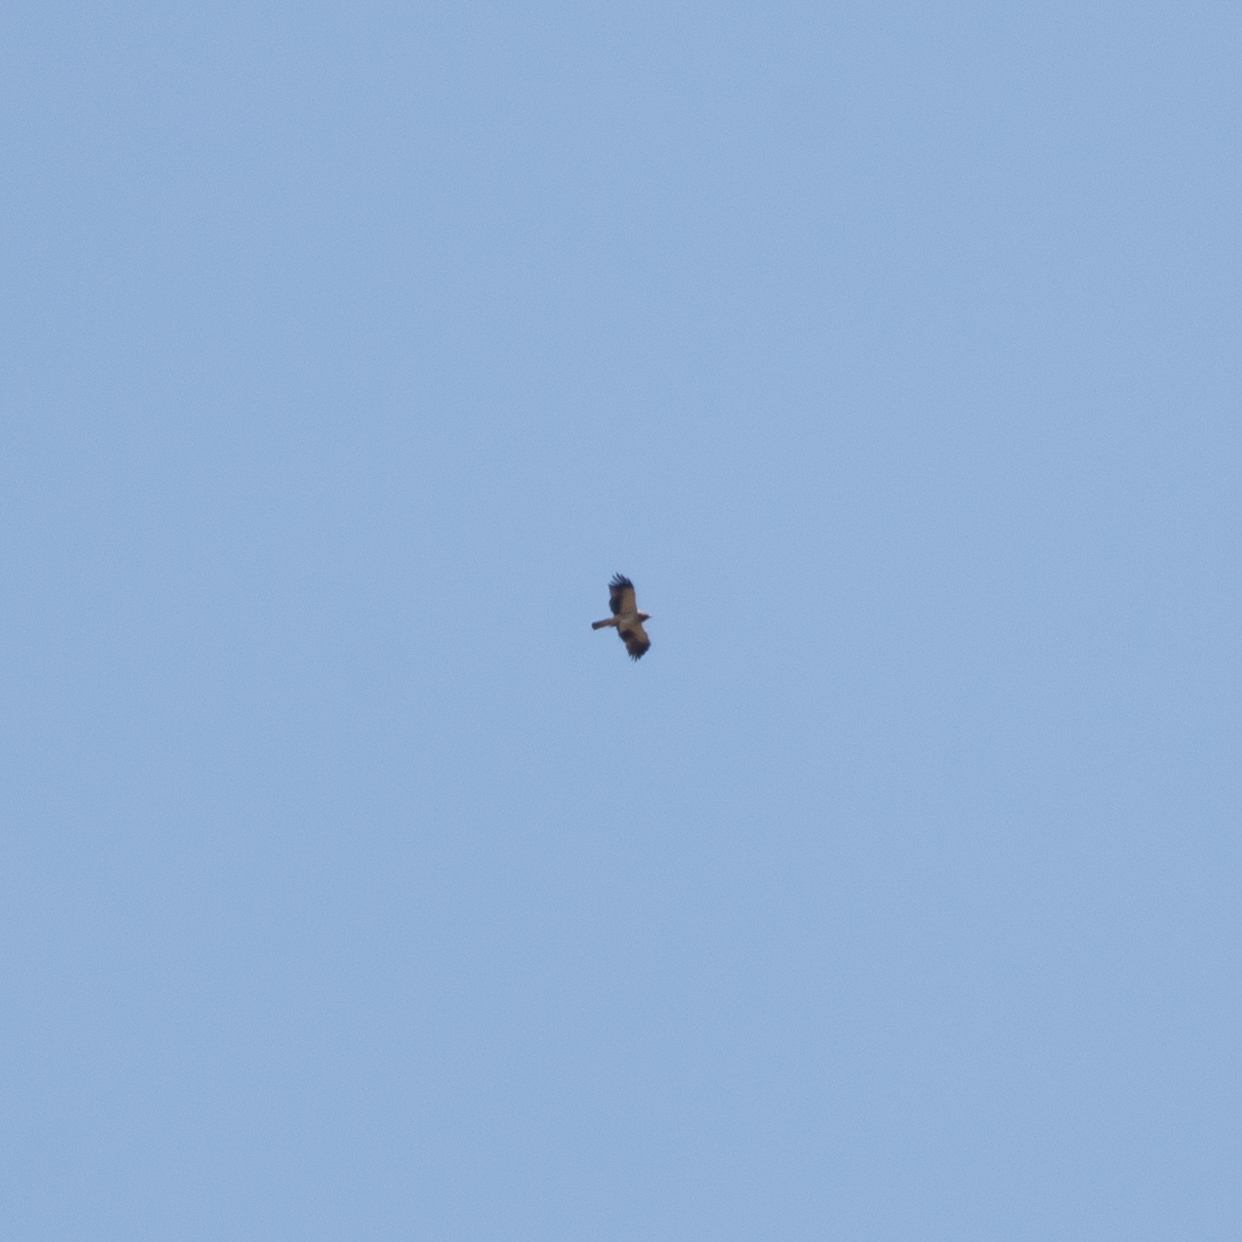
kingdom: Animalia
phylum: Chordata
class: Aves
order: Accipitriformes
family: Accipitridae
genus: Hieraaetus
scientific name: Hieraaetus pennatus
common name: Booted eagle
